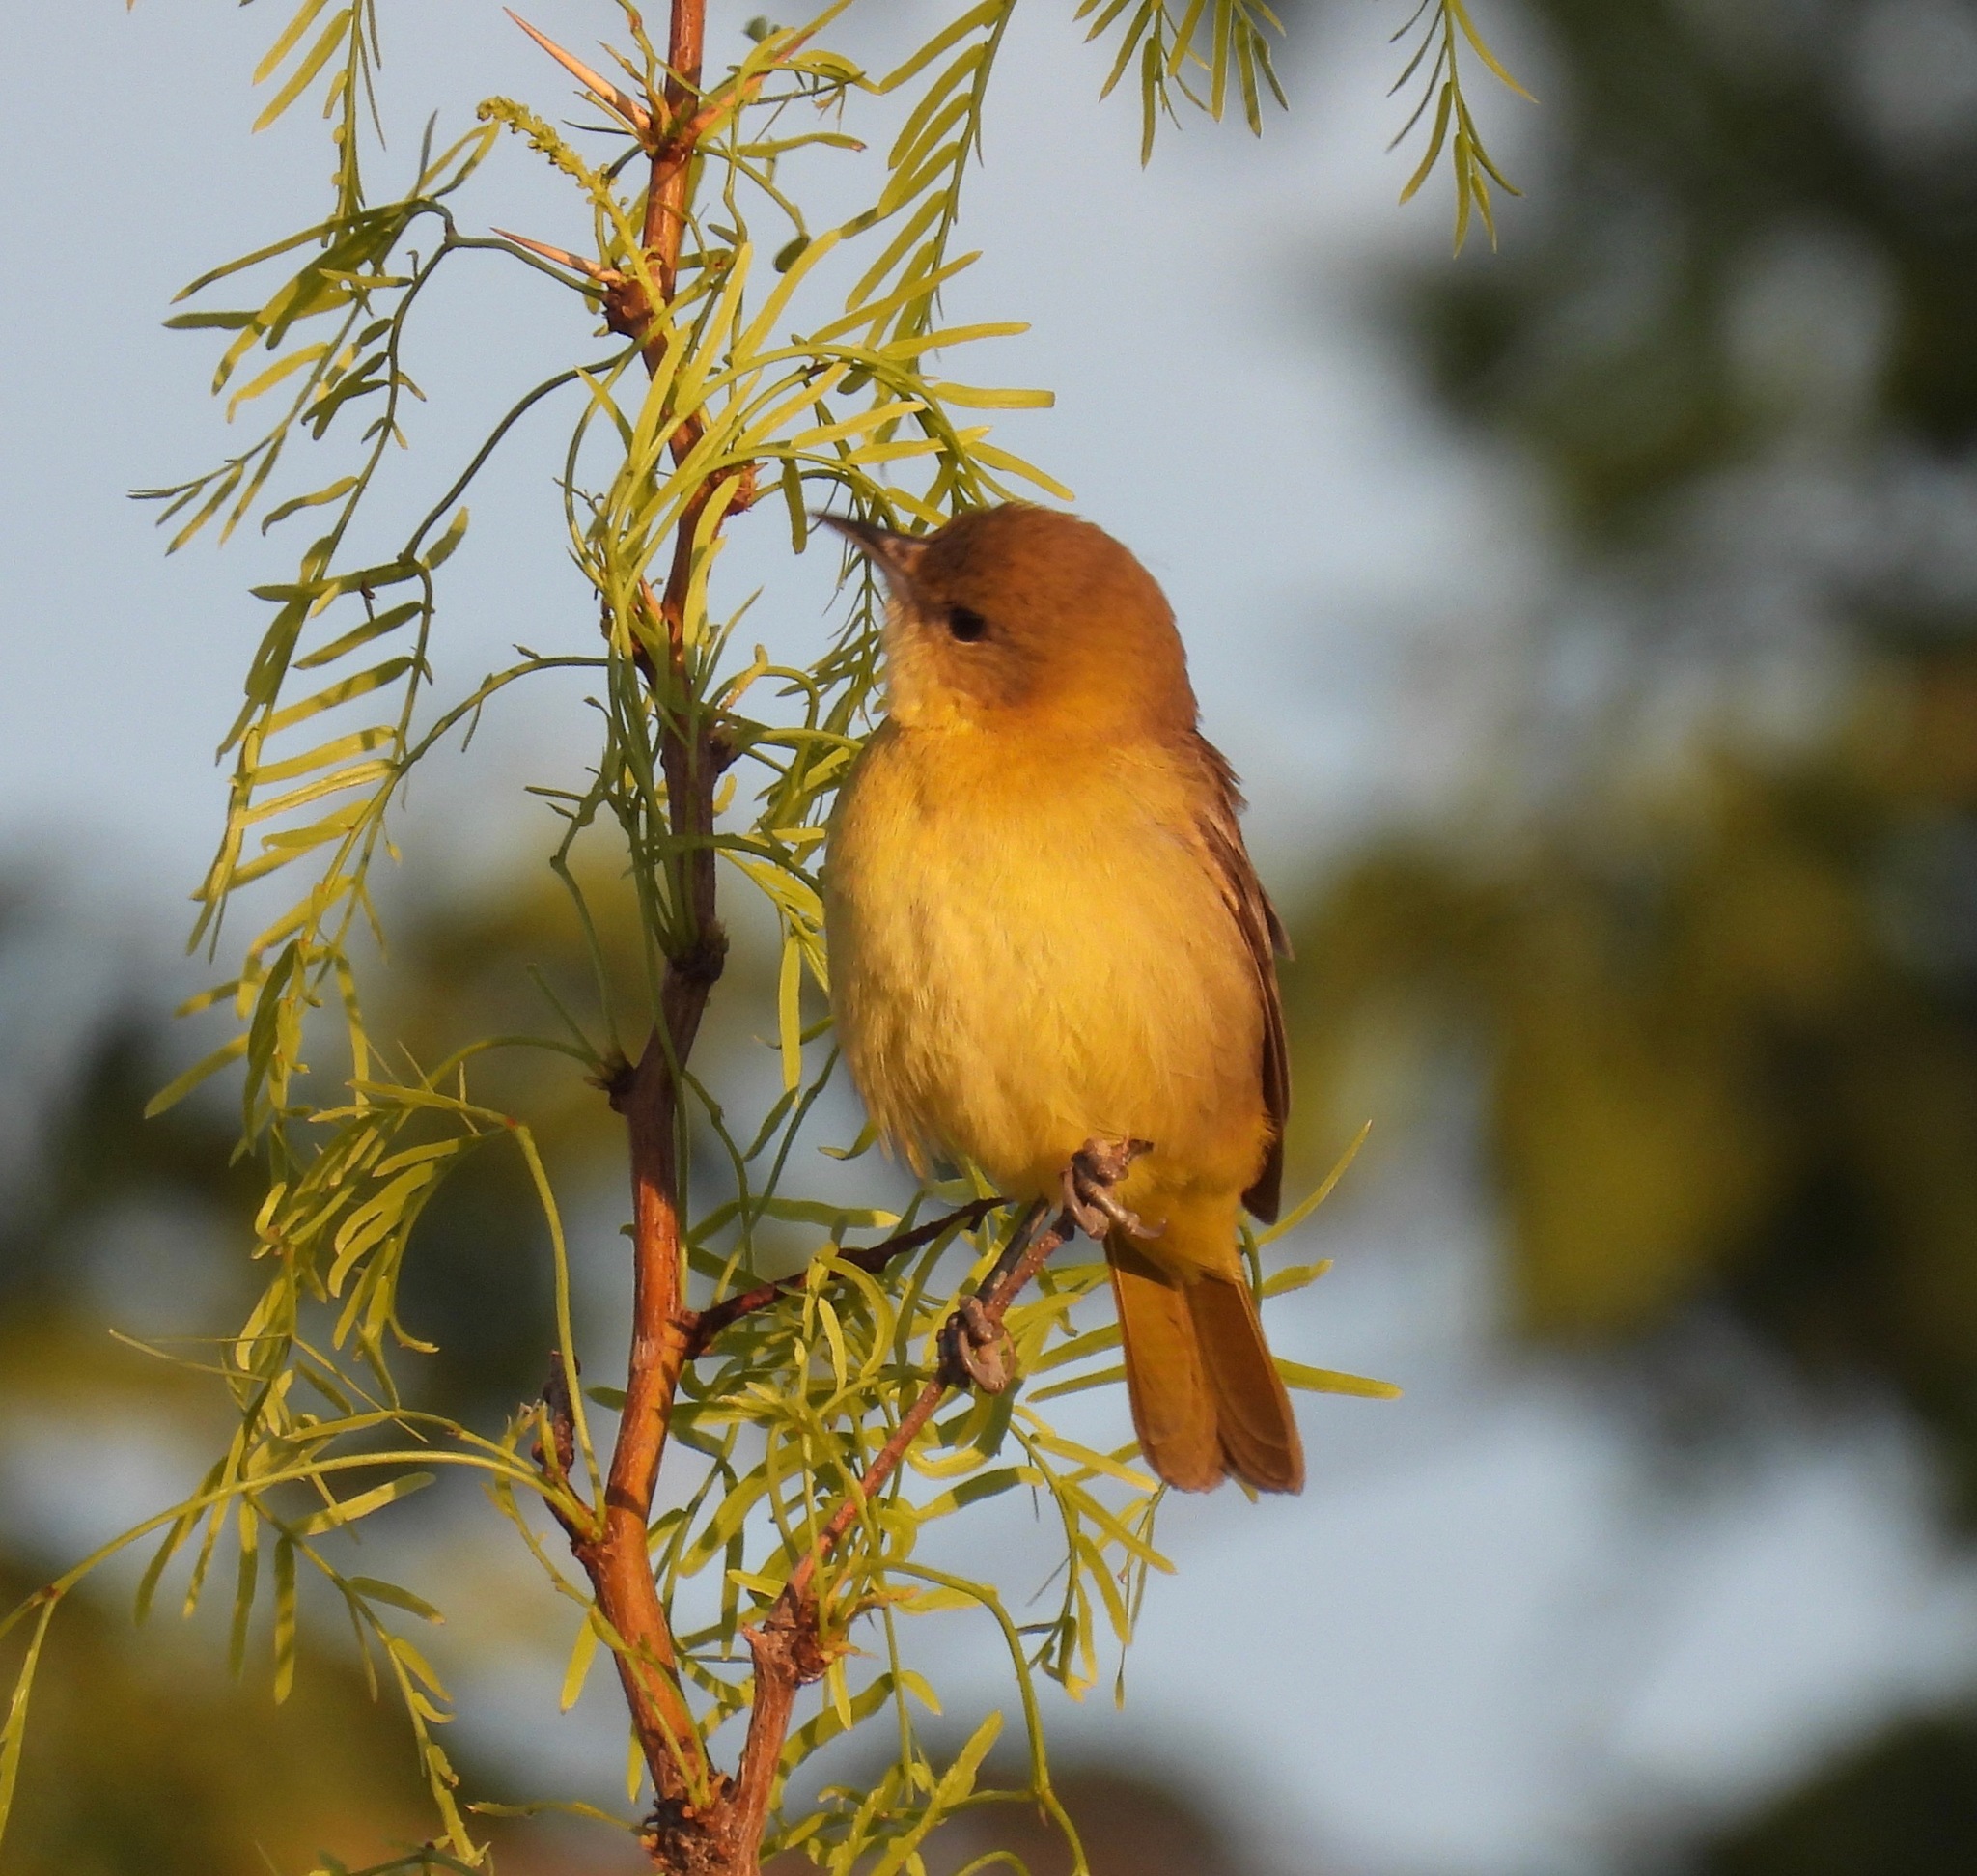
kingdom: Animalia
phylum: Chordata
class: Aves
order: Passeriformes
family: Icteridae
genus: Icterus
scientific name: Icterus spurius
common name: Orchard oriole
